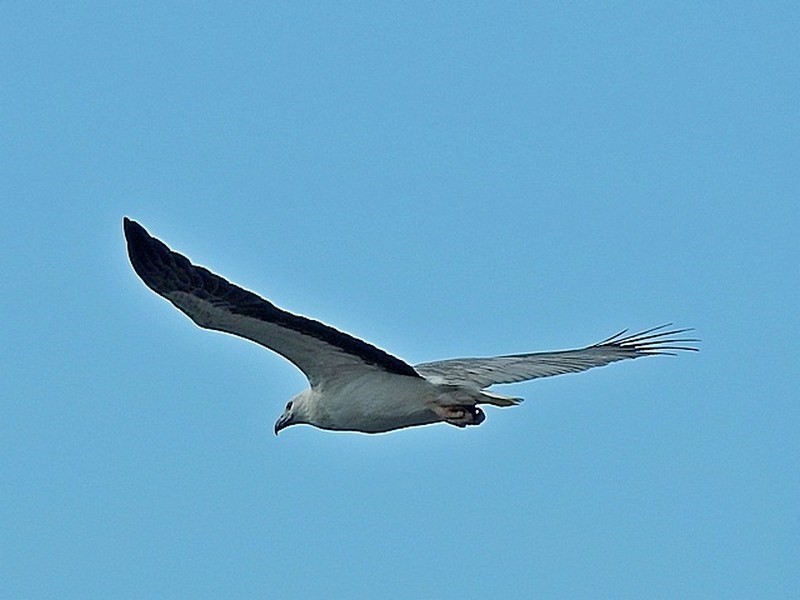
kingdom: Animalia
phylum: Chordata
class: Aves
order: Accipitriformes
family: Accipitridae
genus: Haliaeetus
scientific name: Haliaeetus leucogaster
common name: White-bellied sea eagle
